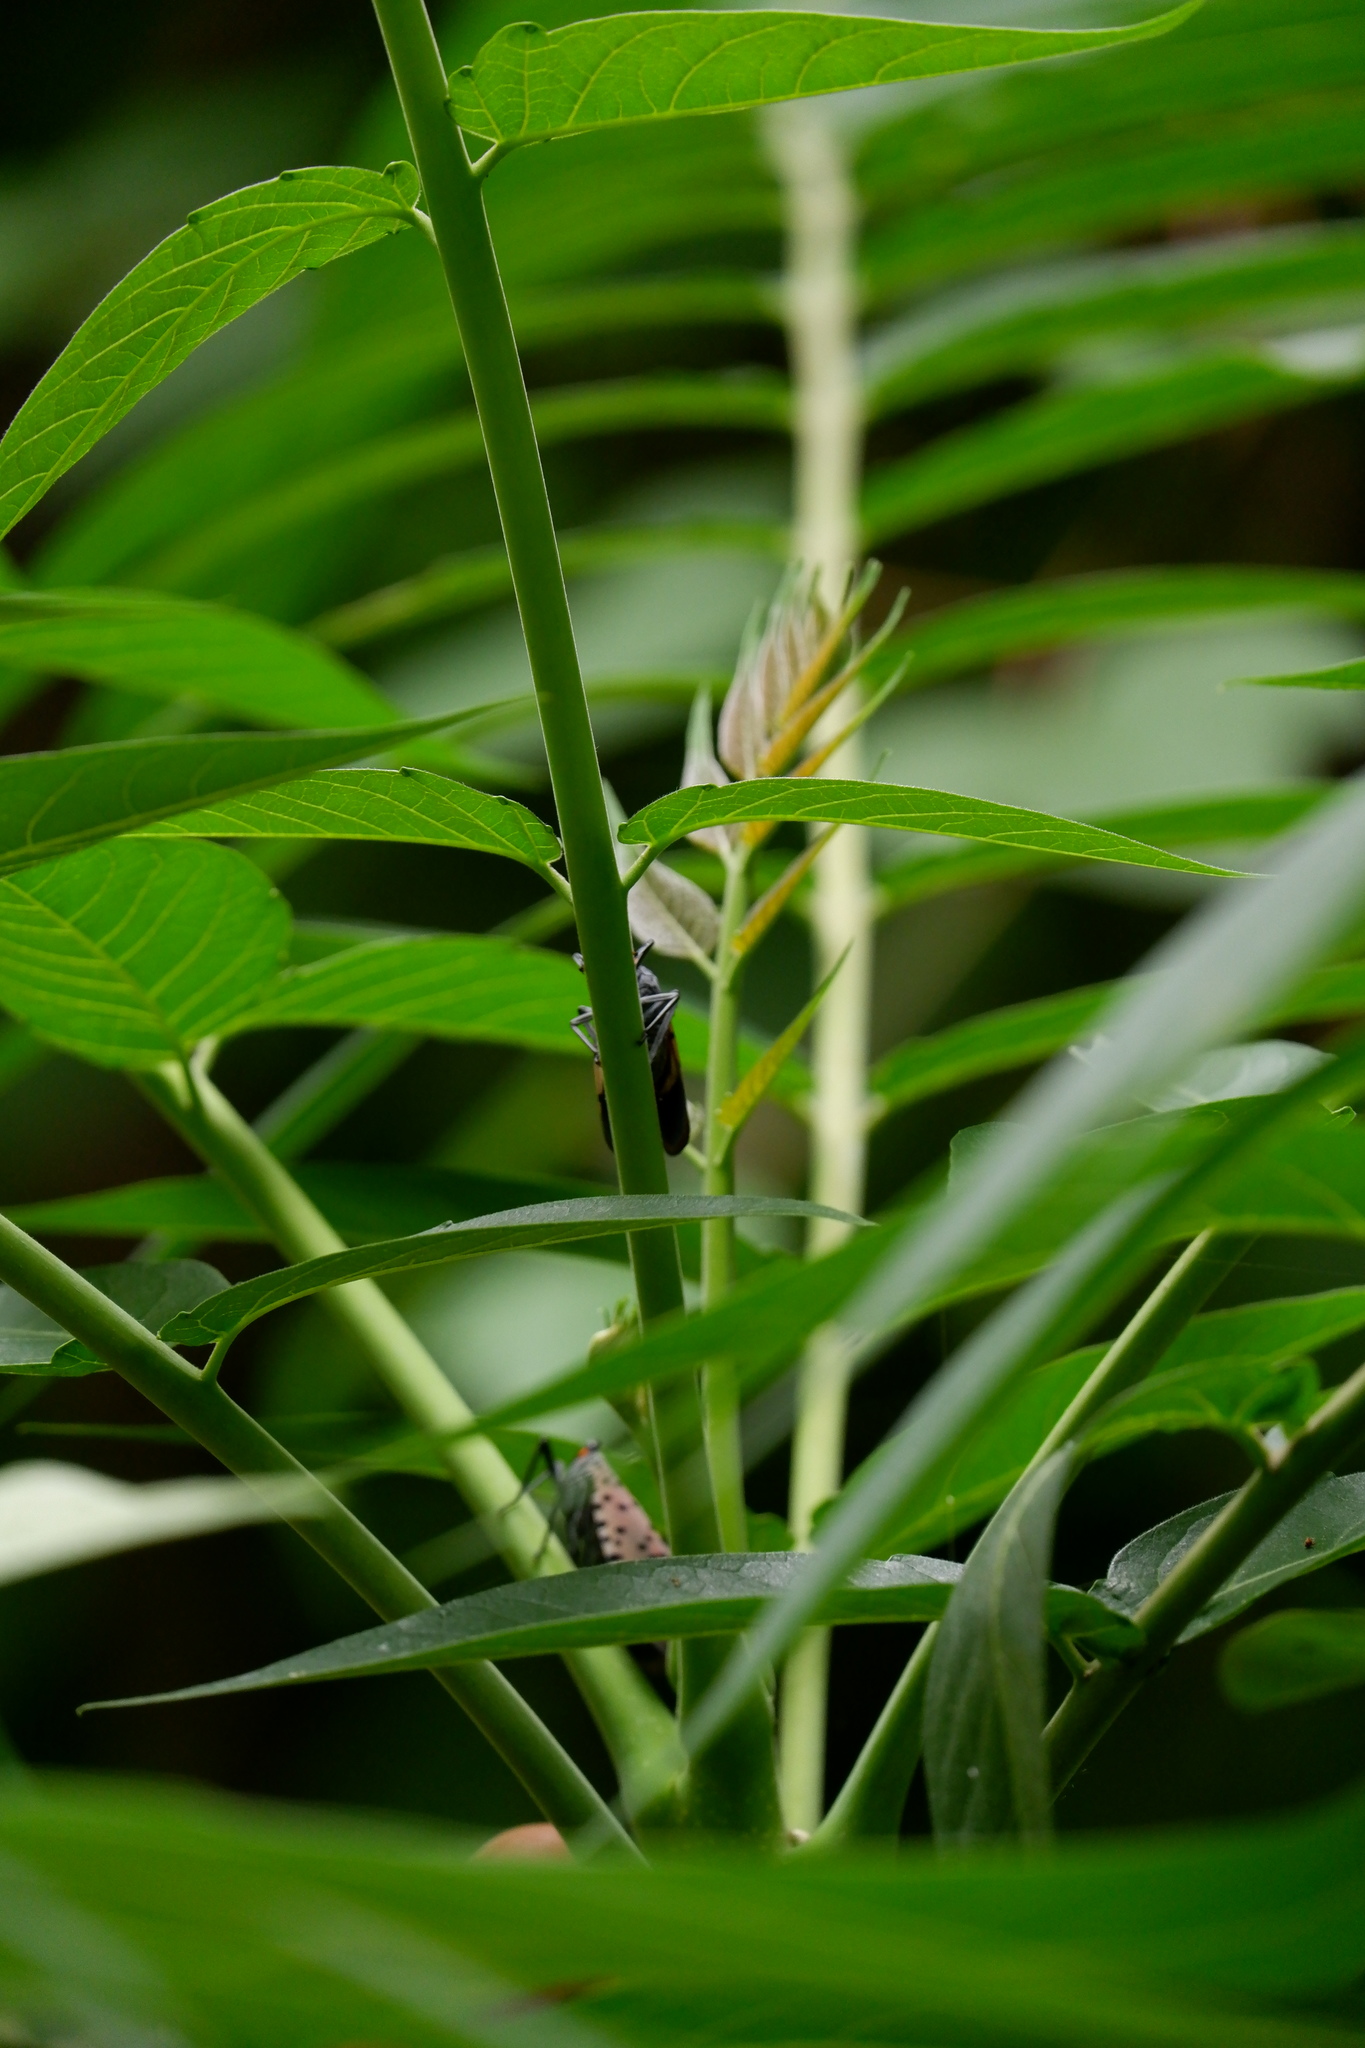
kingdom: Animalia
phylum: Arthropoda
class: Insecta
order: Hemiptera
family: Fulgoridae
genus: Lycorma
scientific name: Lycorma delicatula
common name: Spotted lanternfly
